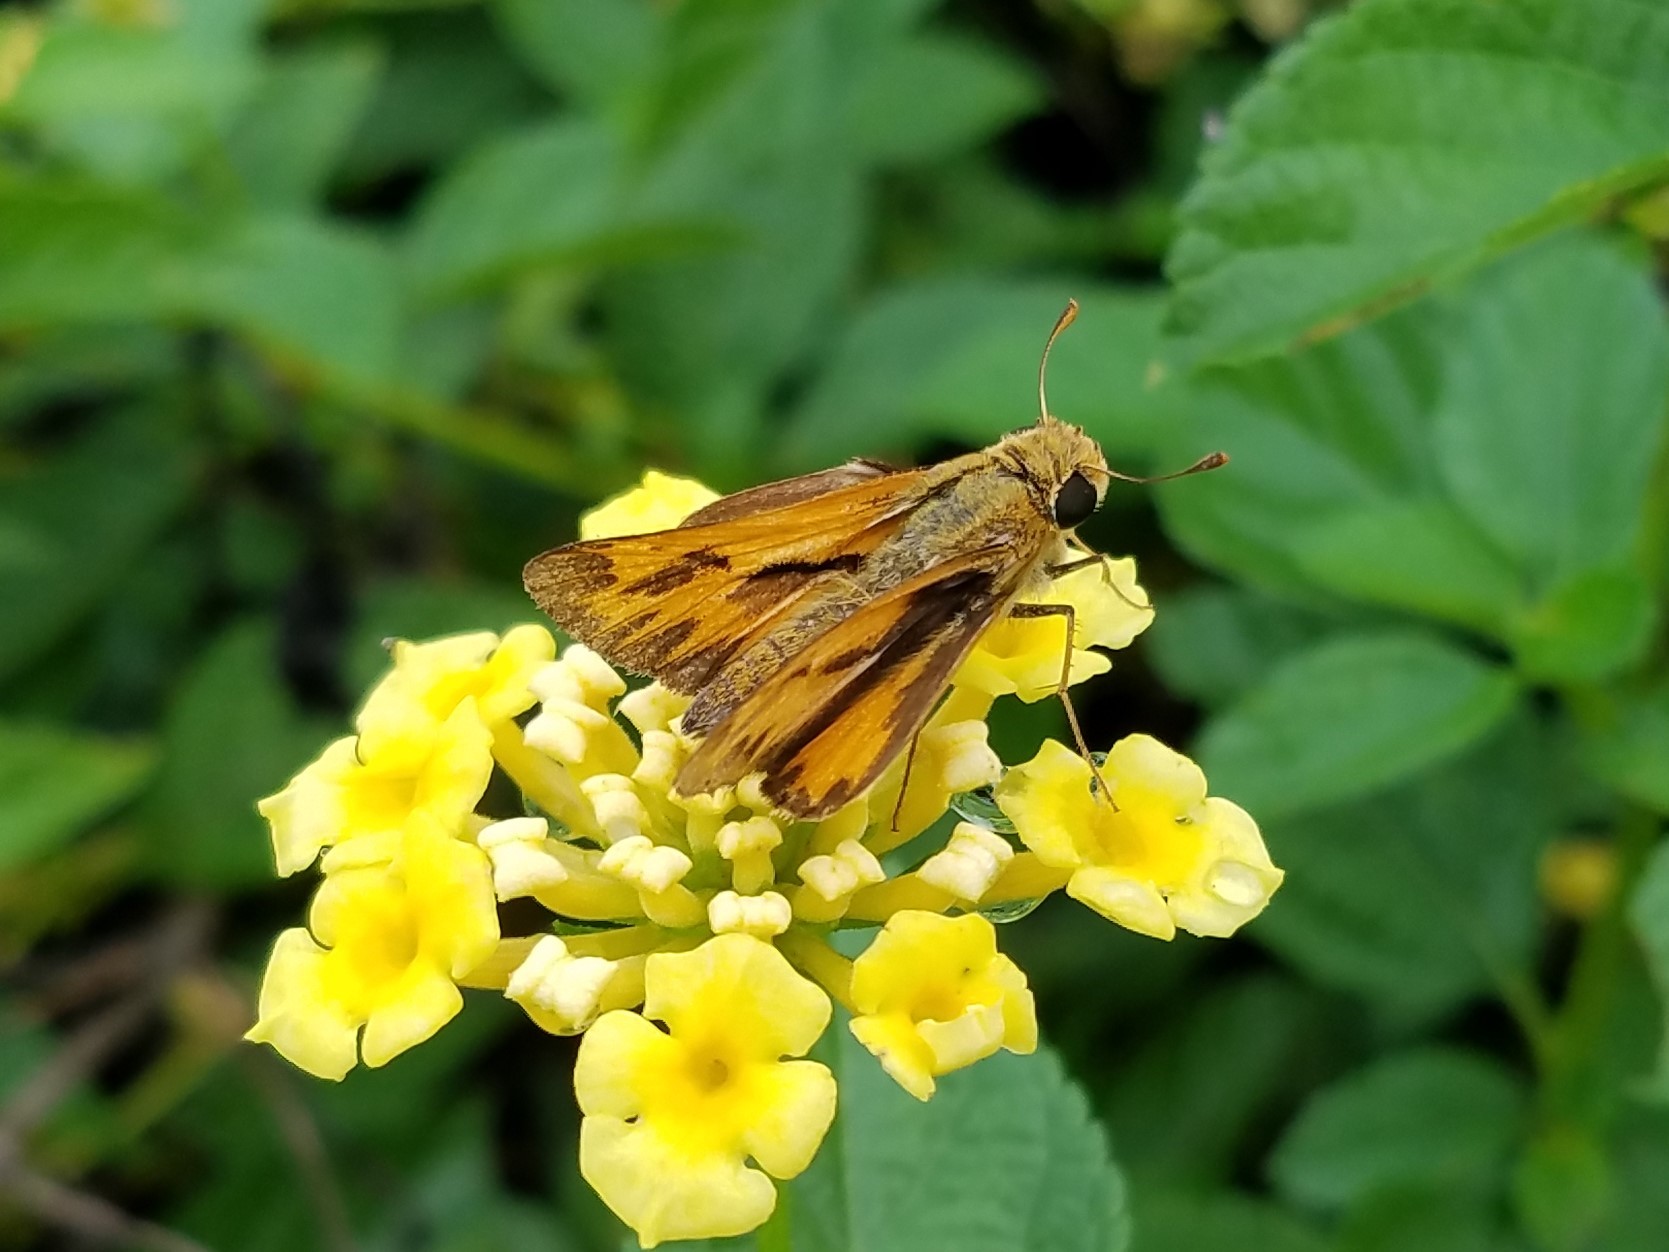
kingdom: Animalia
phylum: Arthropoda
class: Insecta
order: Lepidoptera
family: Hesperiidae
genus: Hylephila
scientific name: Hylephila phyleus
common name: Fiery skipper
